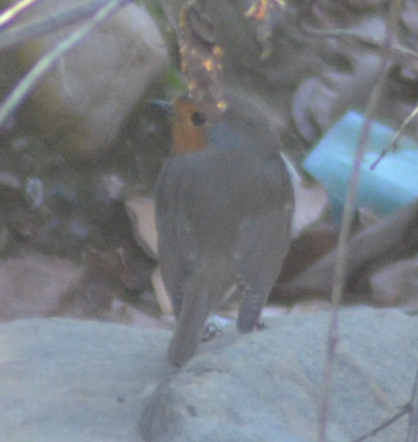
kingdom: Animalia
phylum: Chordata
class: Aves
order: Passeriformes
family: Muscicapidae
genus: Erithacus
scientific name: Erithacus rubecula
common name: European robin
